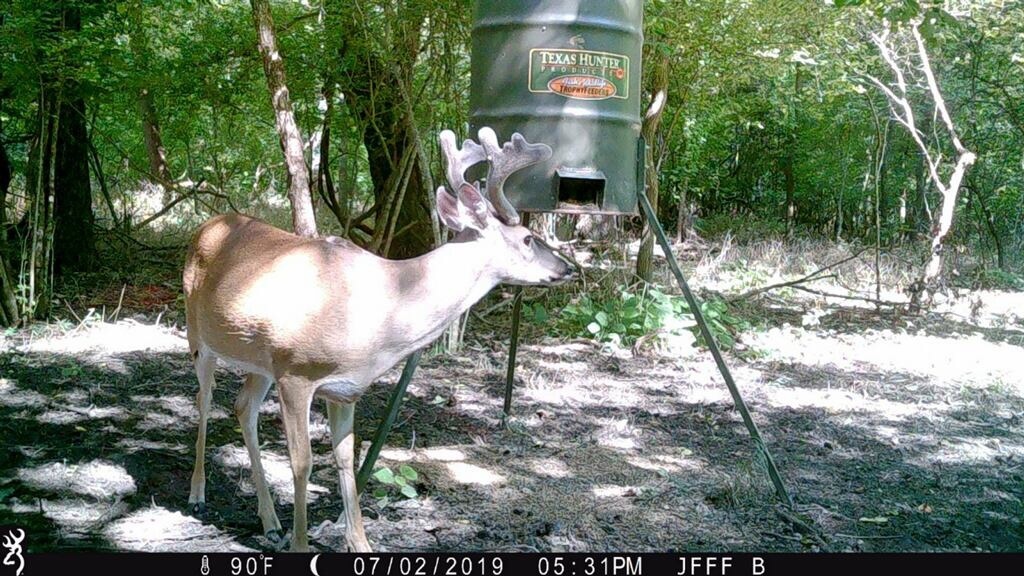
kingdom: Animalia
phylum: Chordata
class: Mammalia
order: Artiodactyla
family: Cervidae
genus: Odocoileus
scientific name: Odocoileus virginianus
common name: White-tailed deer
